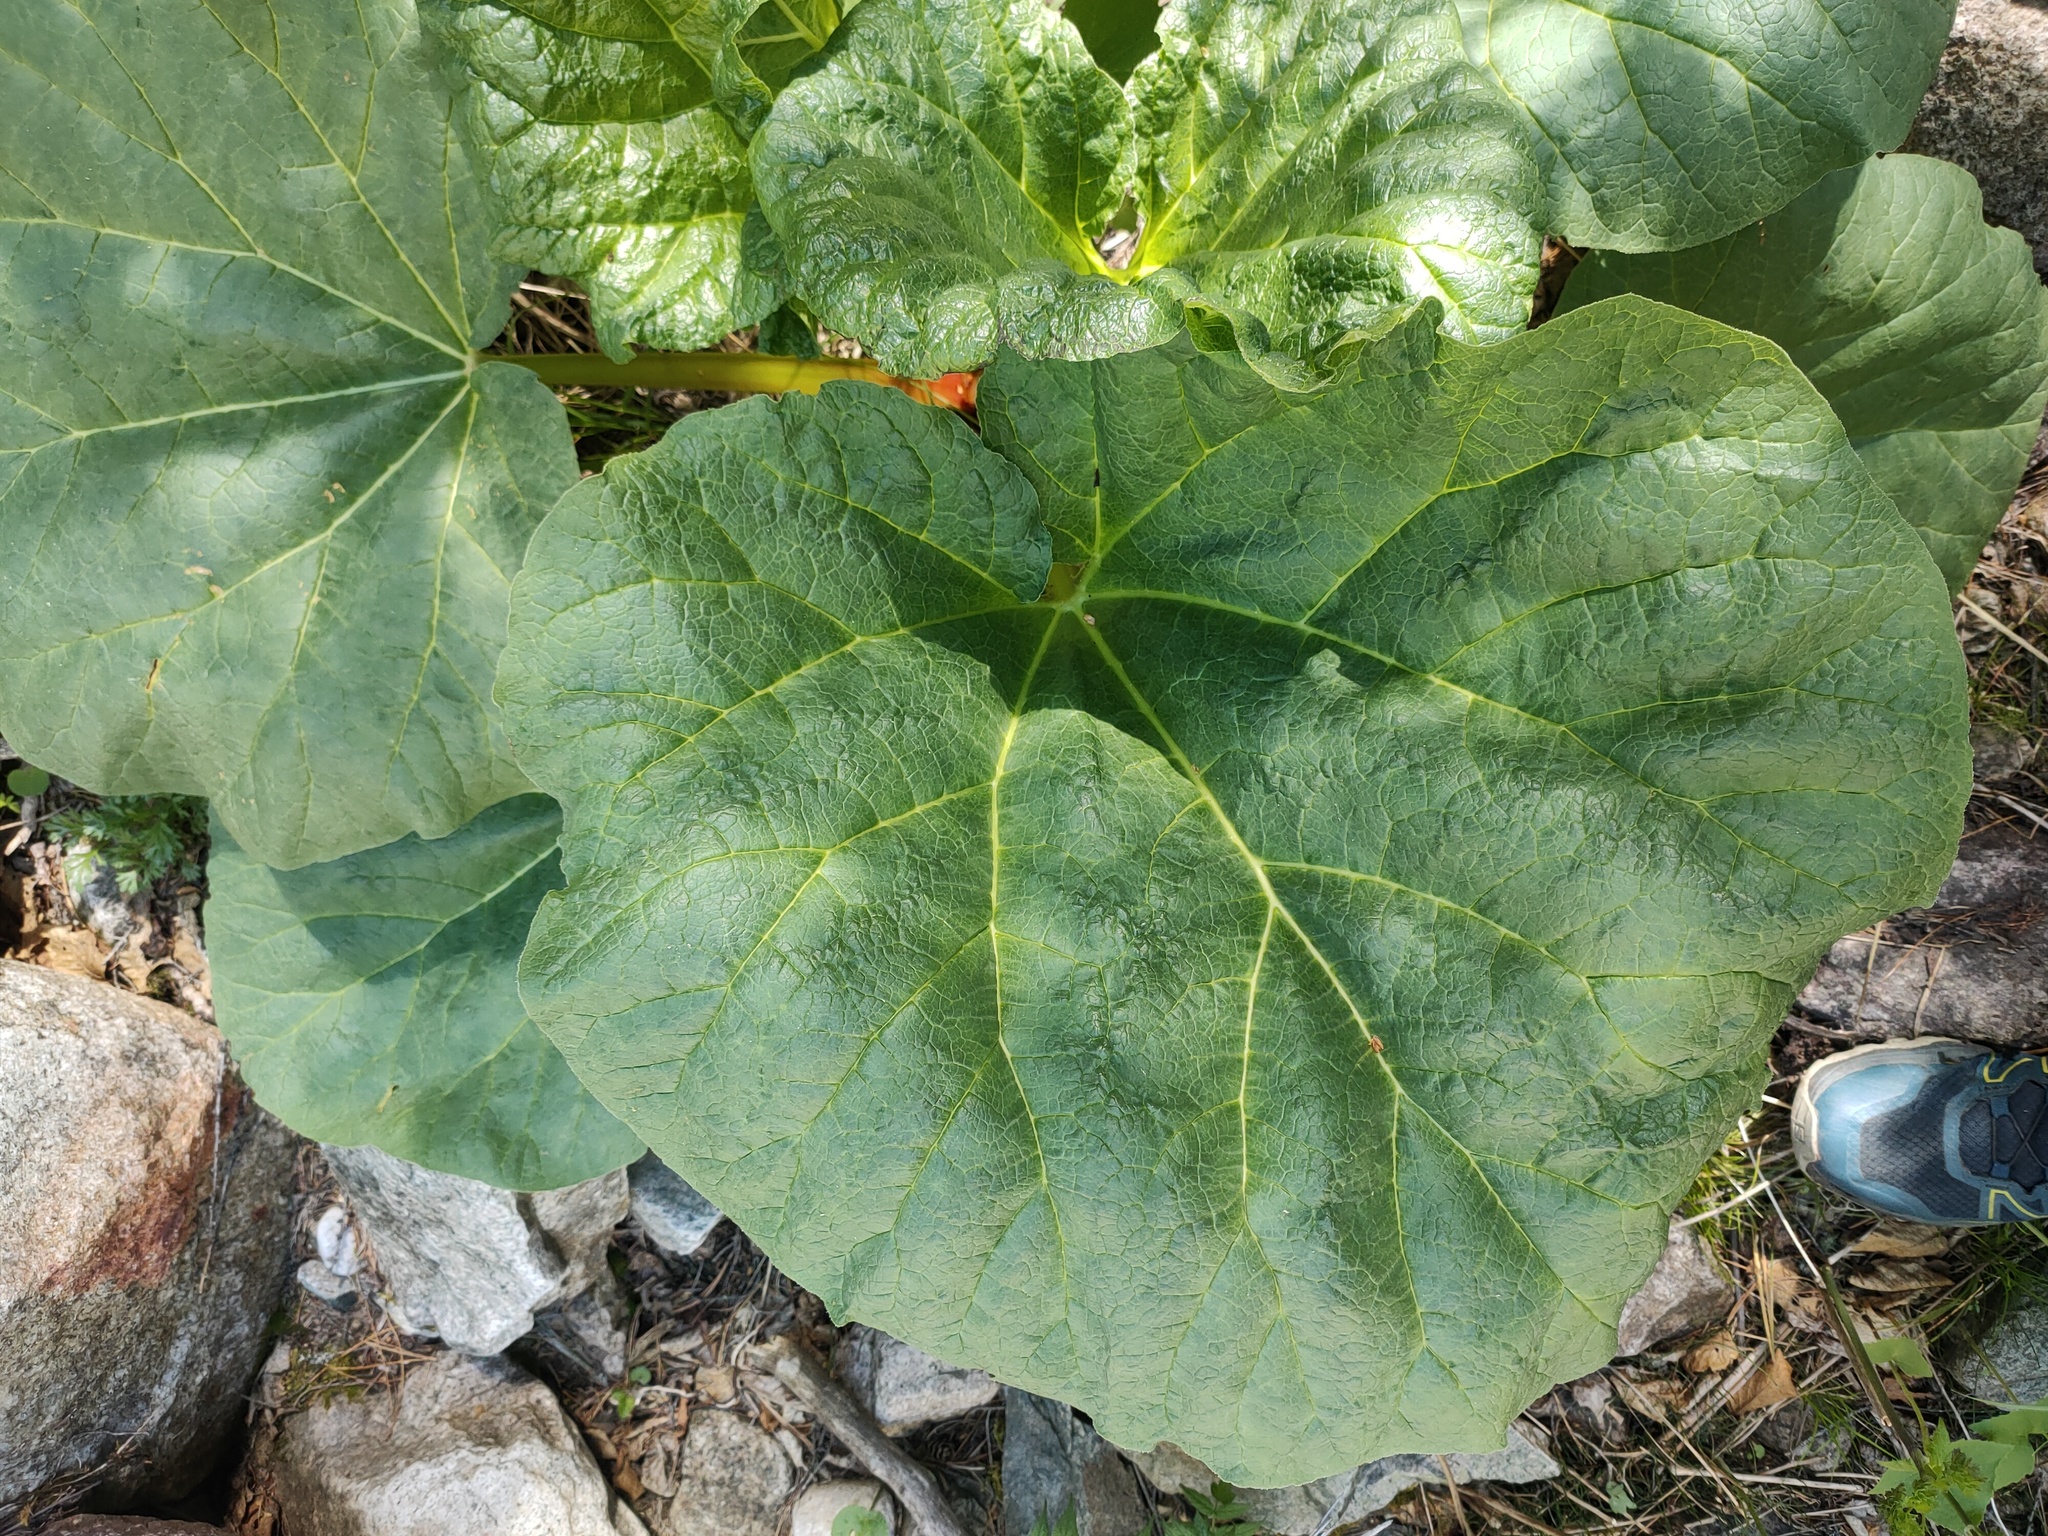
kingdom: Plantae
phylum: Tracheophyta
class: Magnoliopsida
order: Caryophyllales
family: Polygonaceae
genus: Rheum
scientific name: Rheum compactum
